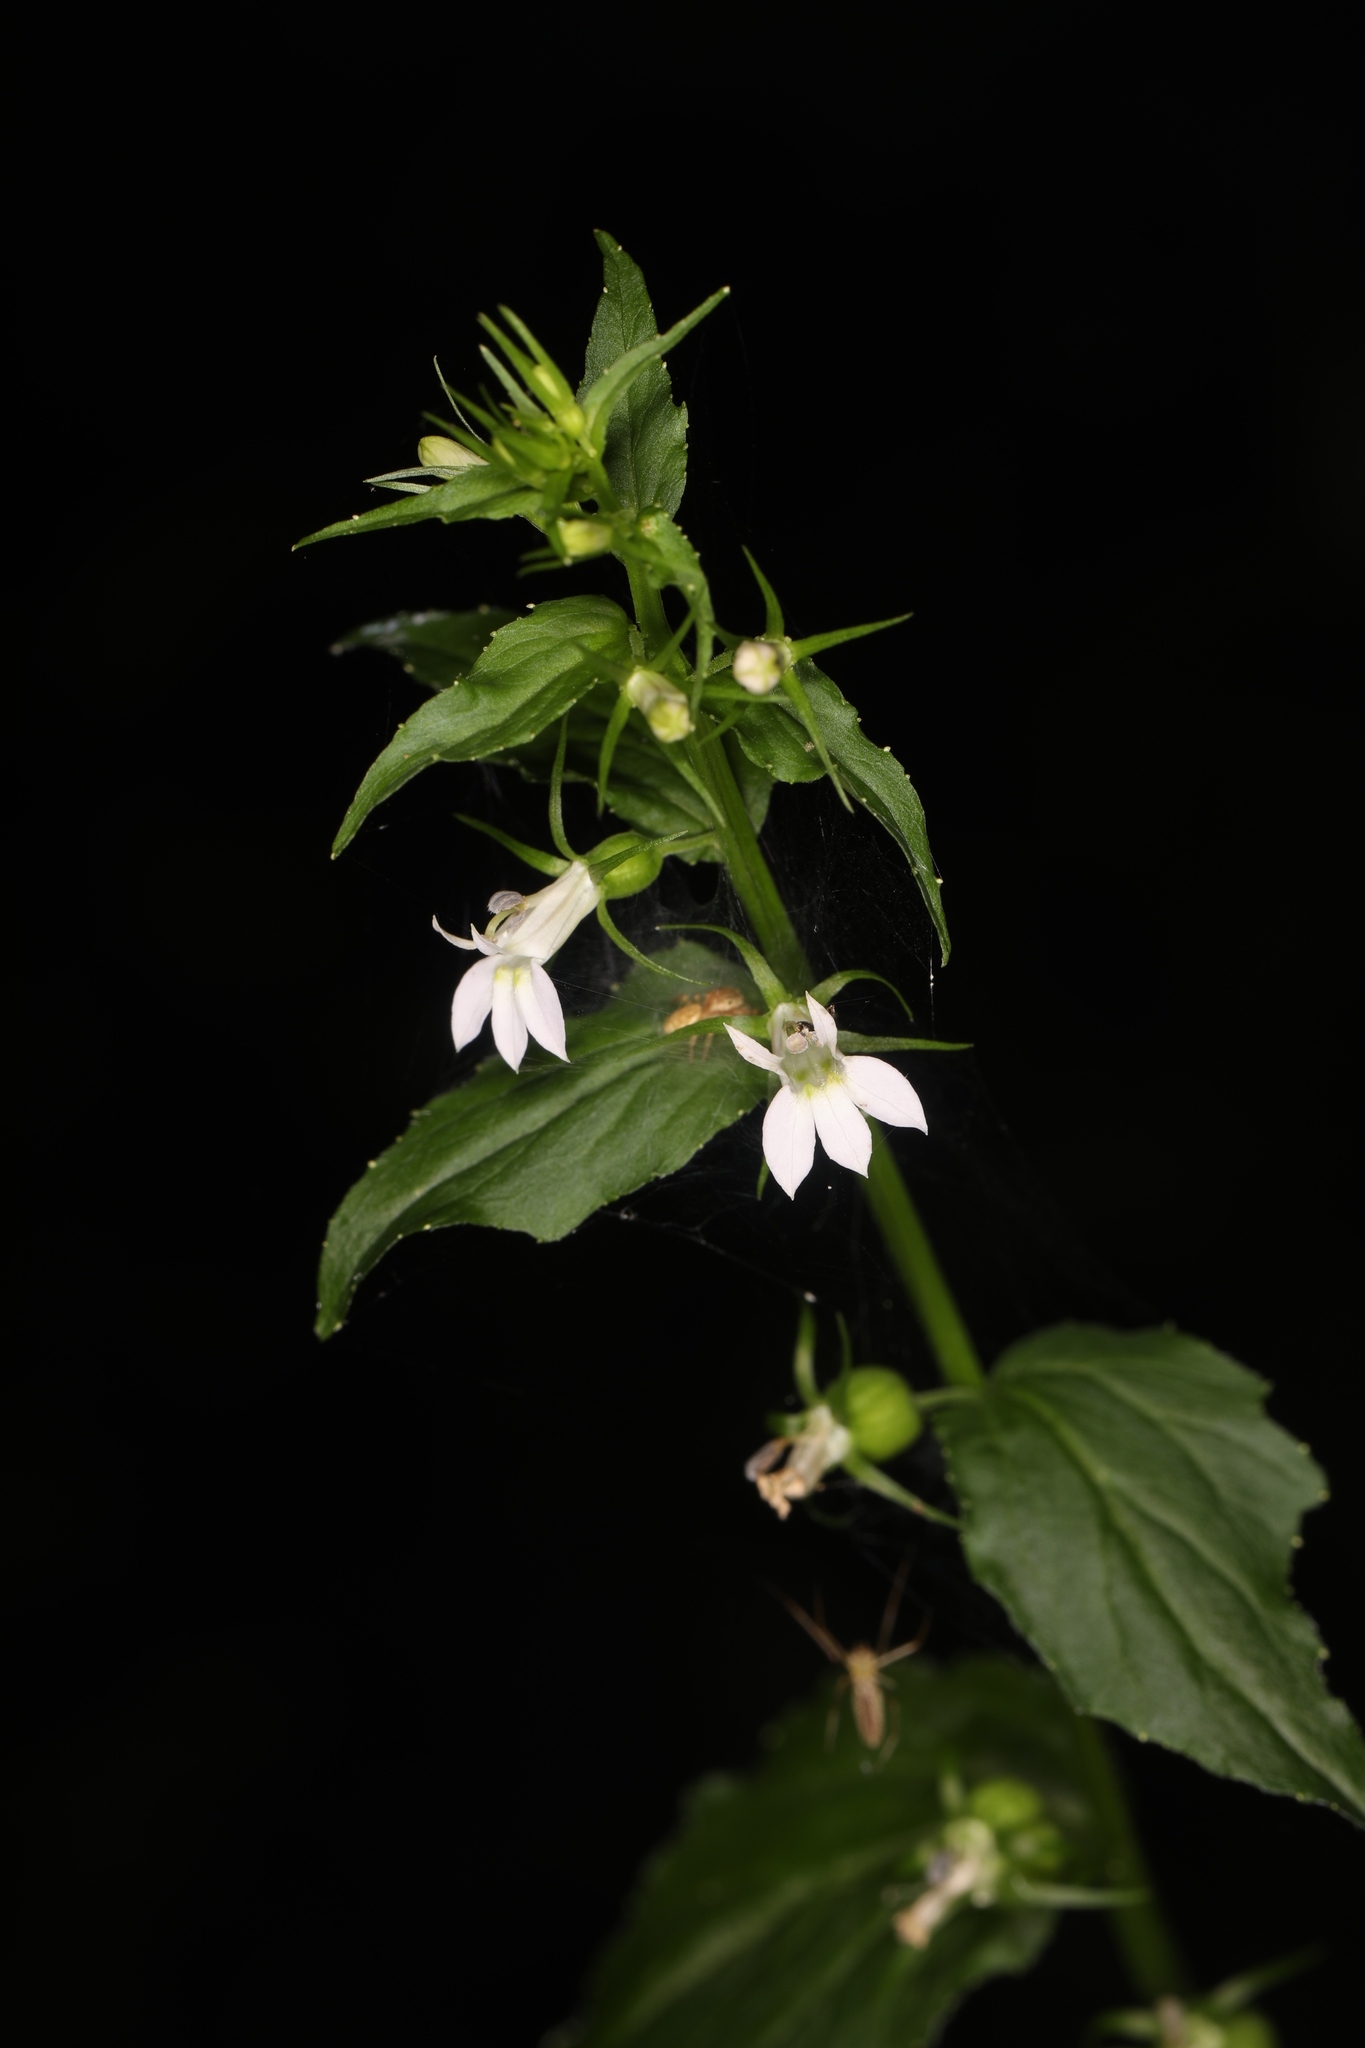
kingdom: Plantae
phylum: Tracheophyta
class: Magnoliopsida
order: Asterales
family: Campanulaceae
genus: Lobelia
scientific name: Lobelia inflata
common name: Indian tobacco
